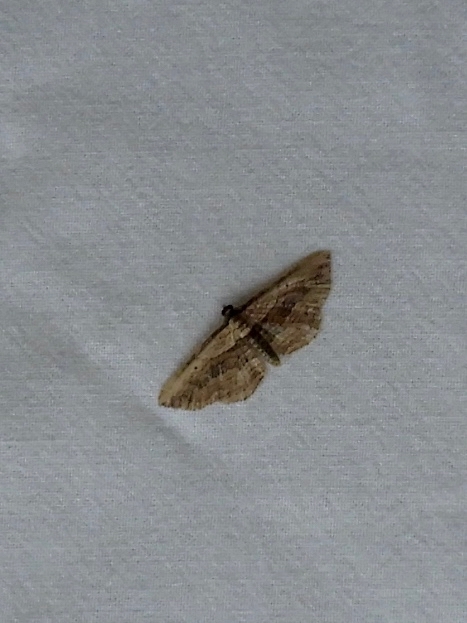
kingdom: Animalia
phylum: Arthropoda
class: Insecta
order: Lepidoptera
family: Geometridae
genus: Horisme
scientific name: Horisme vitalbata
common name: Small waved umber
